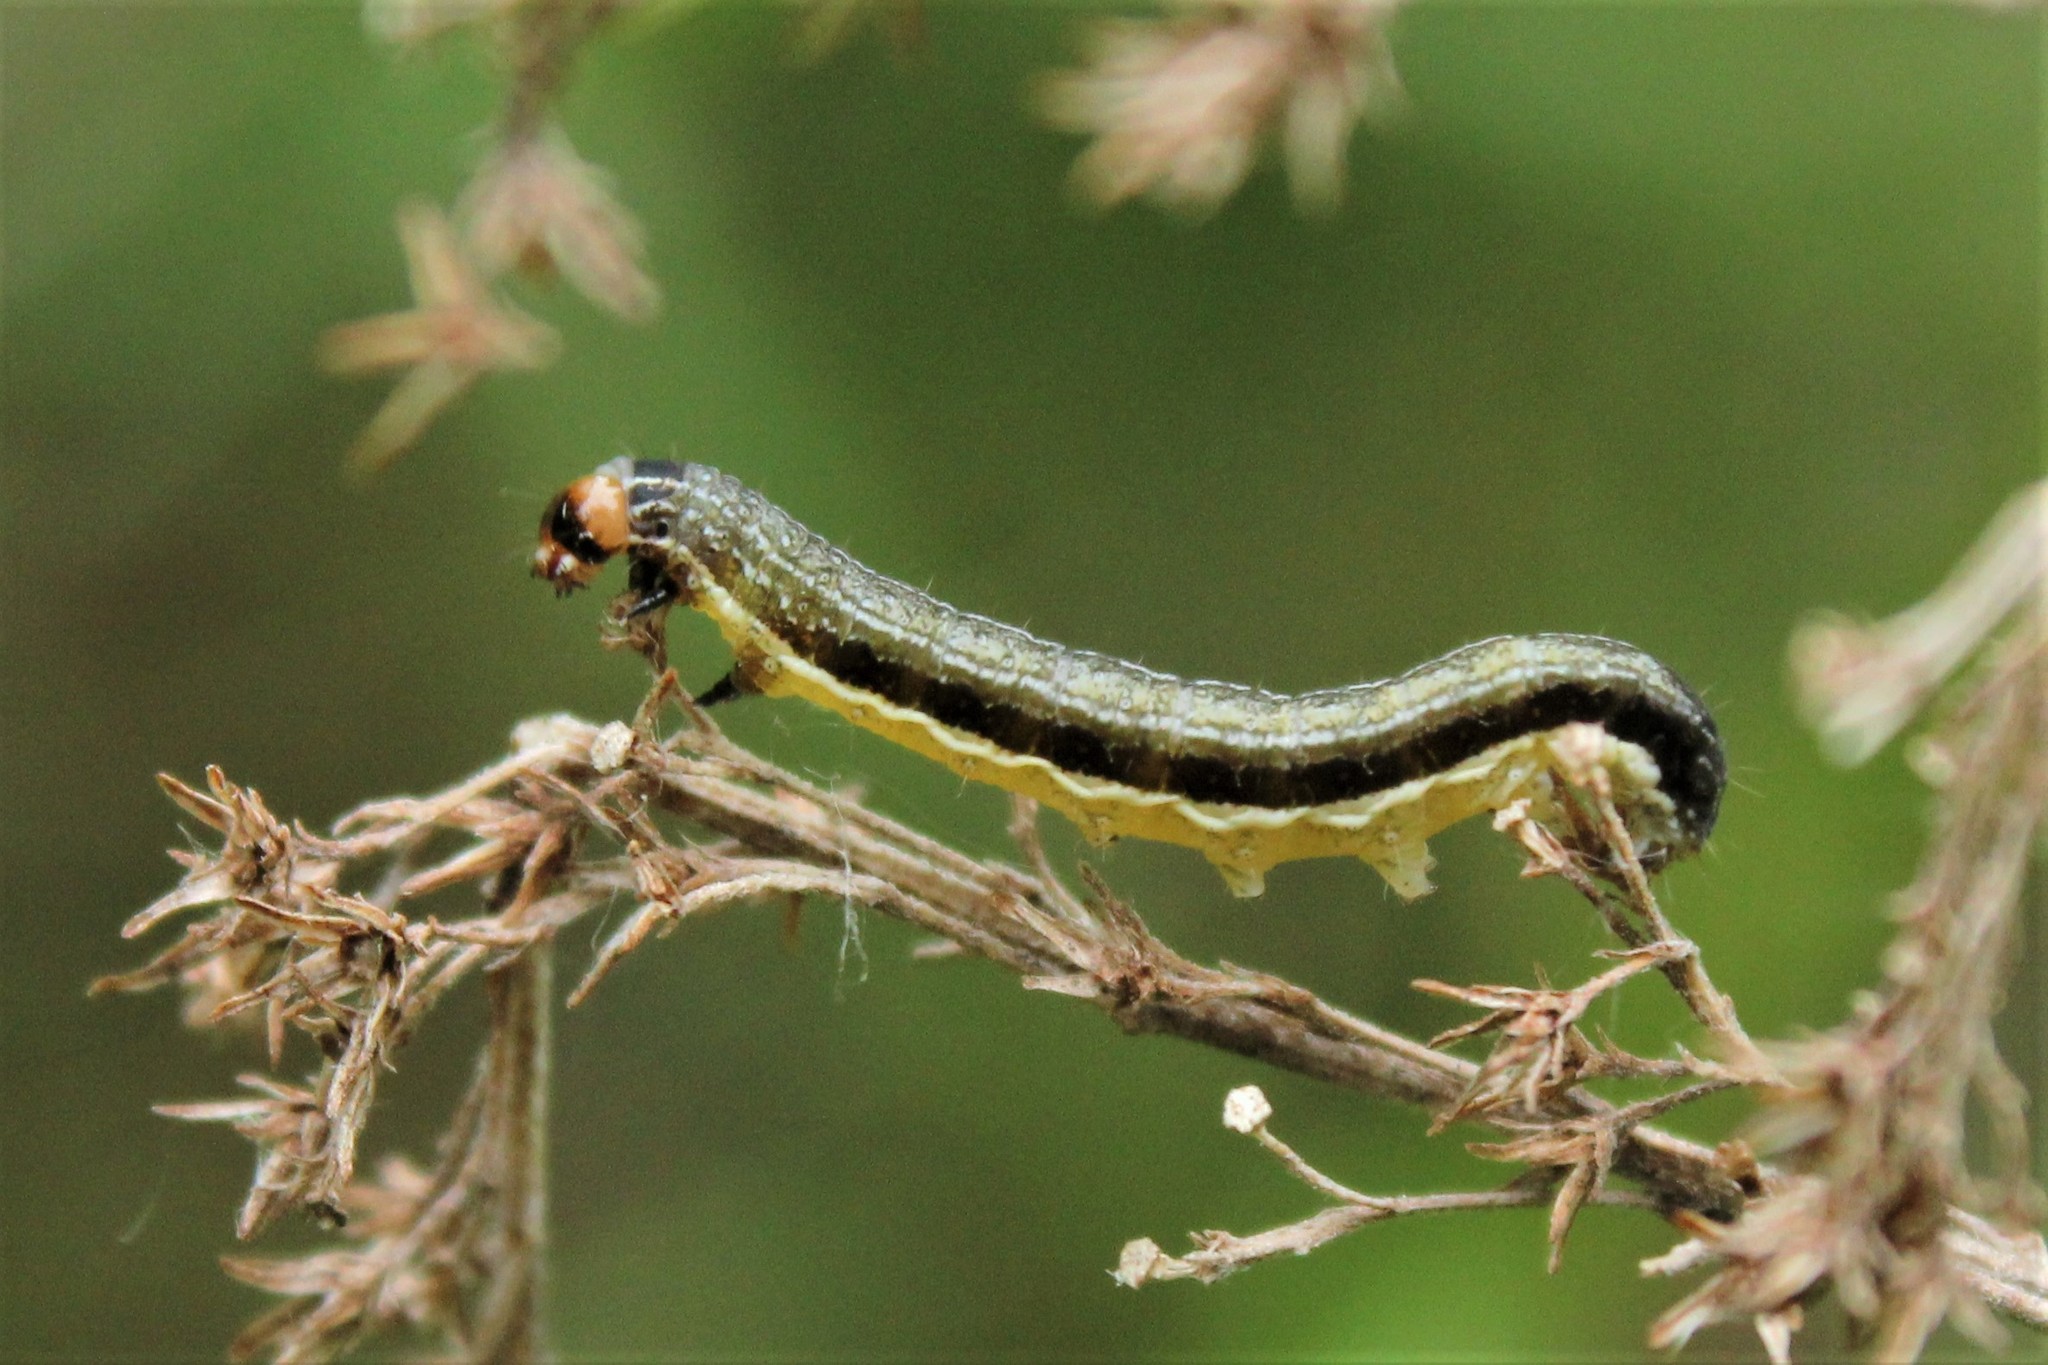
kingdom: Animalia
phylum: Arthropoda
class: Insecta
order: Lepidoptera
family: Noctuidae
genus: Spodoptera
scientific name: Spodoptera frugiperda
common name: Fall armyworm
